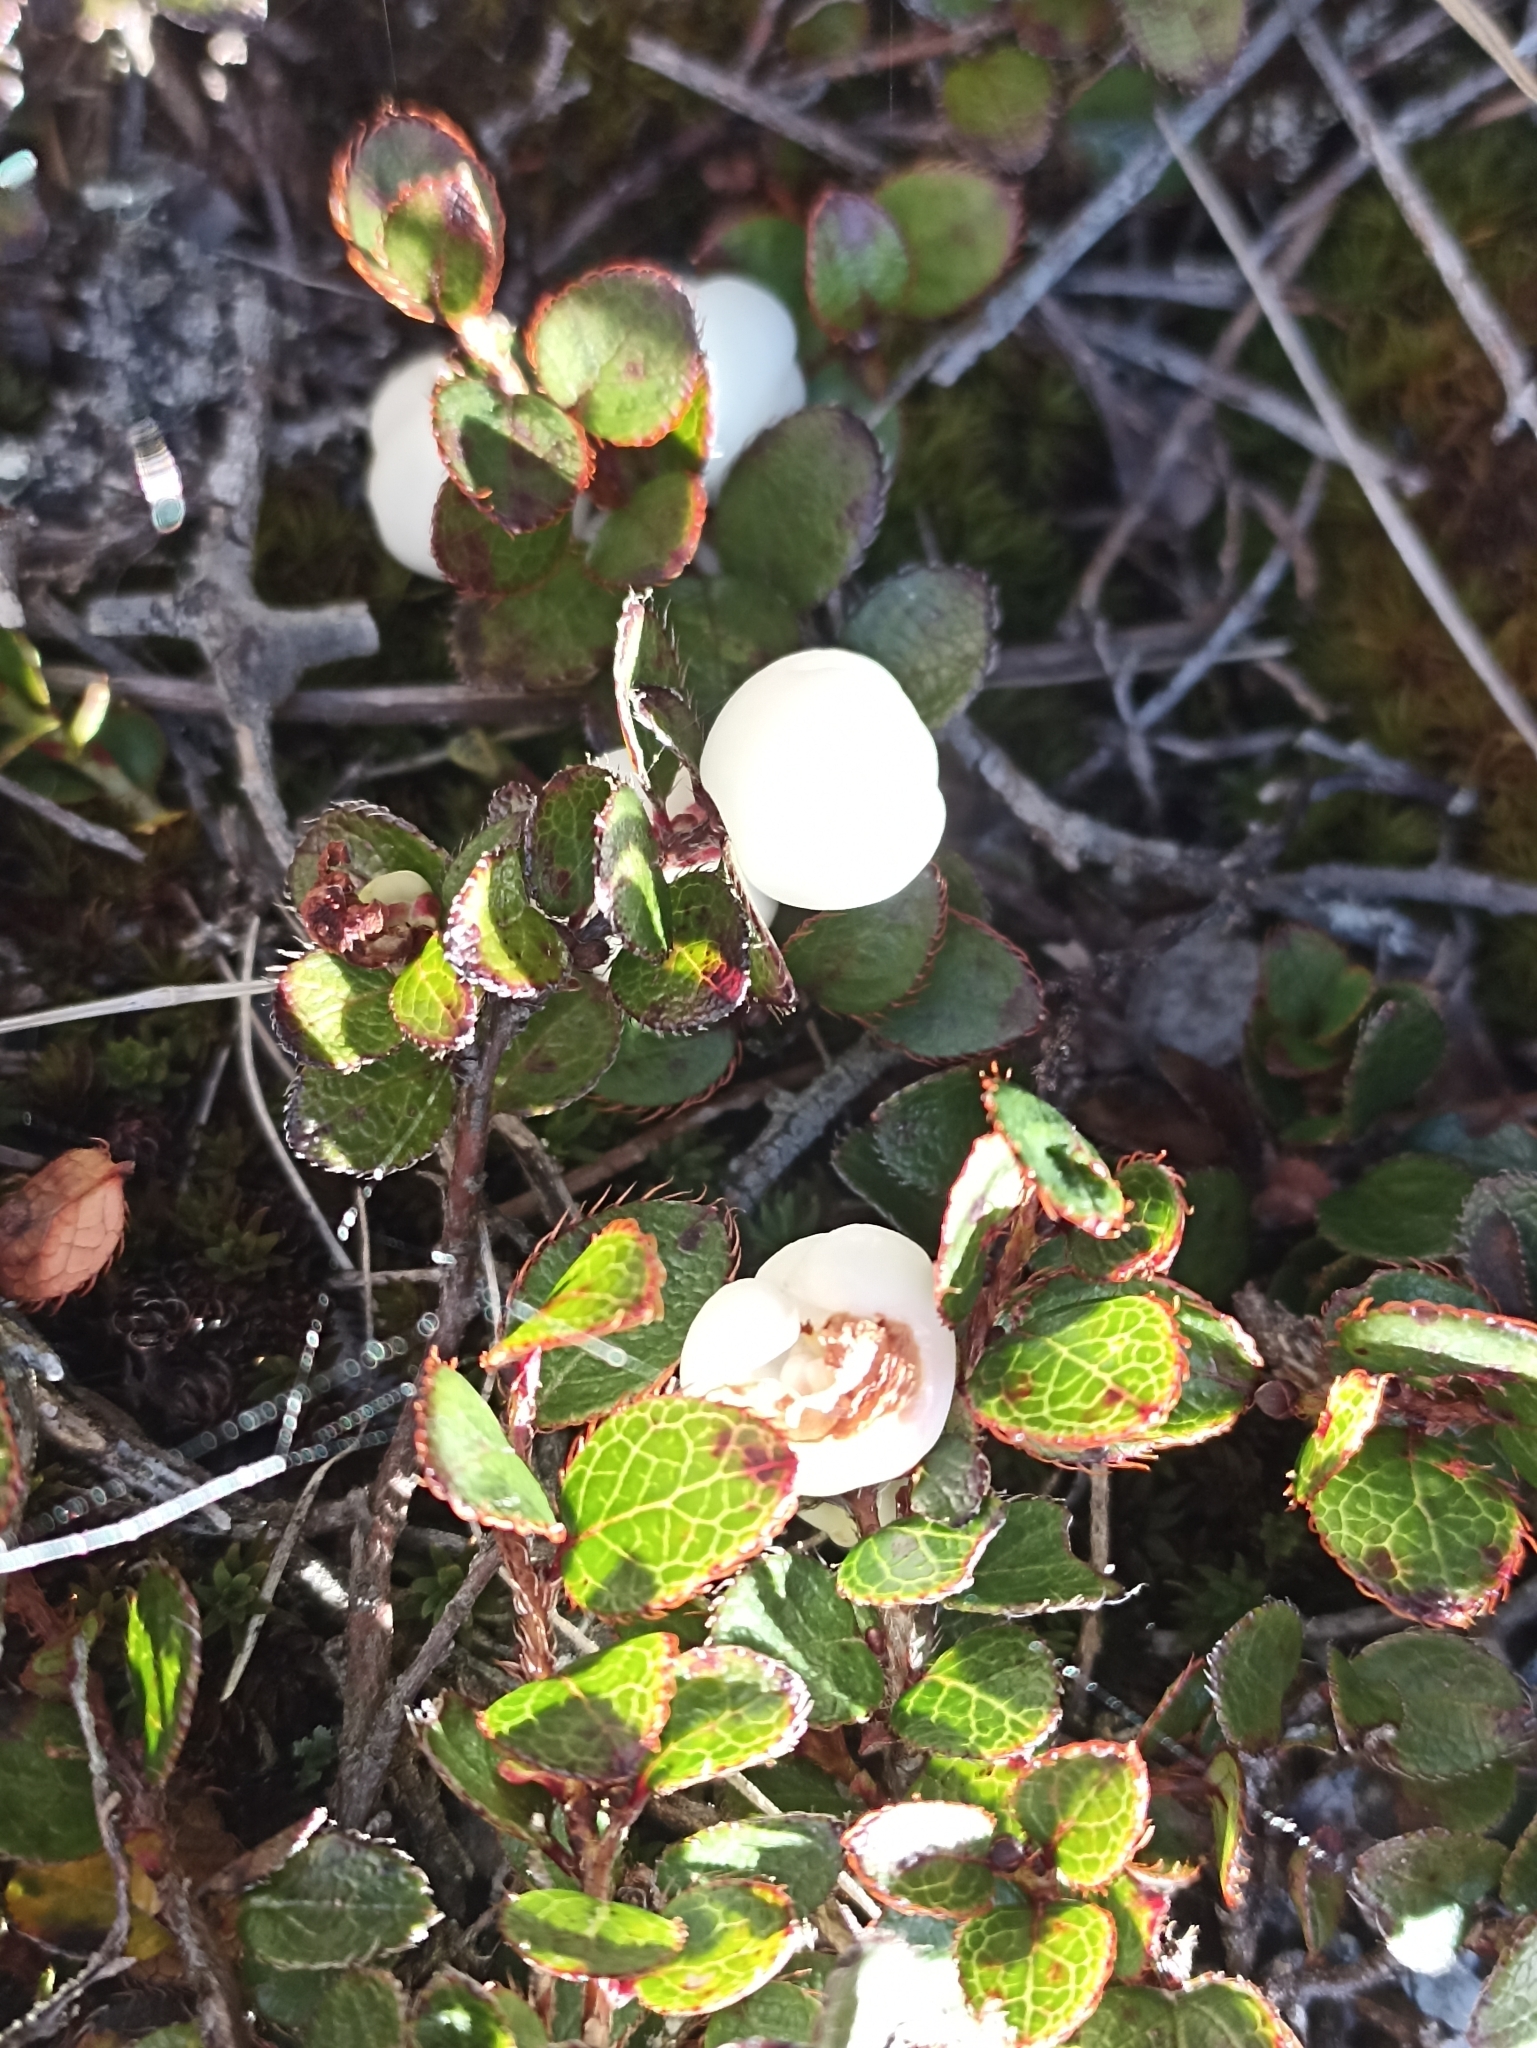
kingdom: Plantae
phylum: Tracheophyta
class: Magnoliopsida
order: Ericales
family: Ericaceae
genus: Gaultheria
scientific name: Gaultheria depressa
